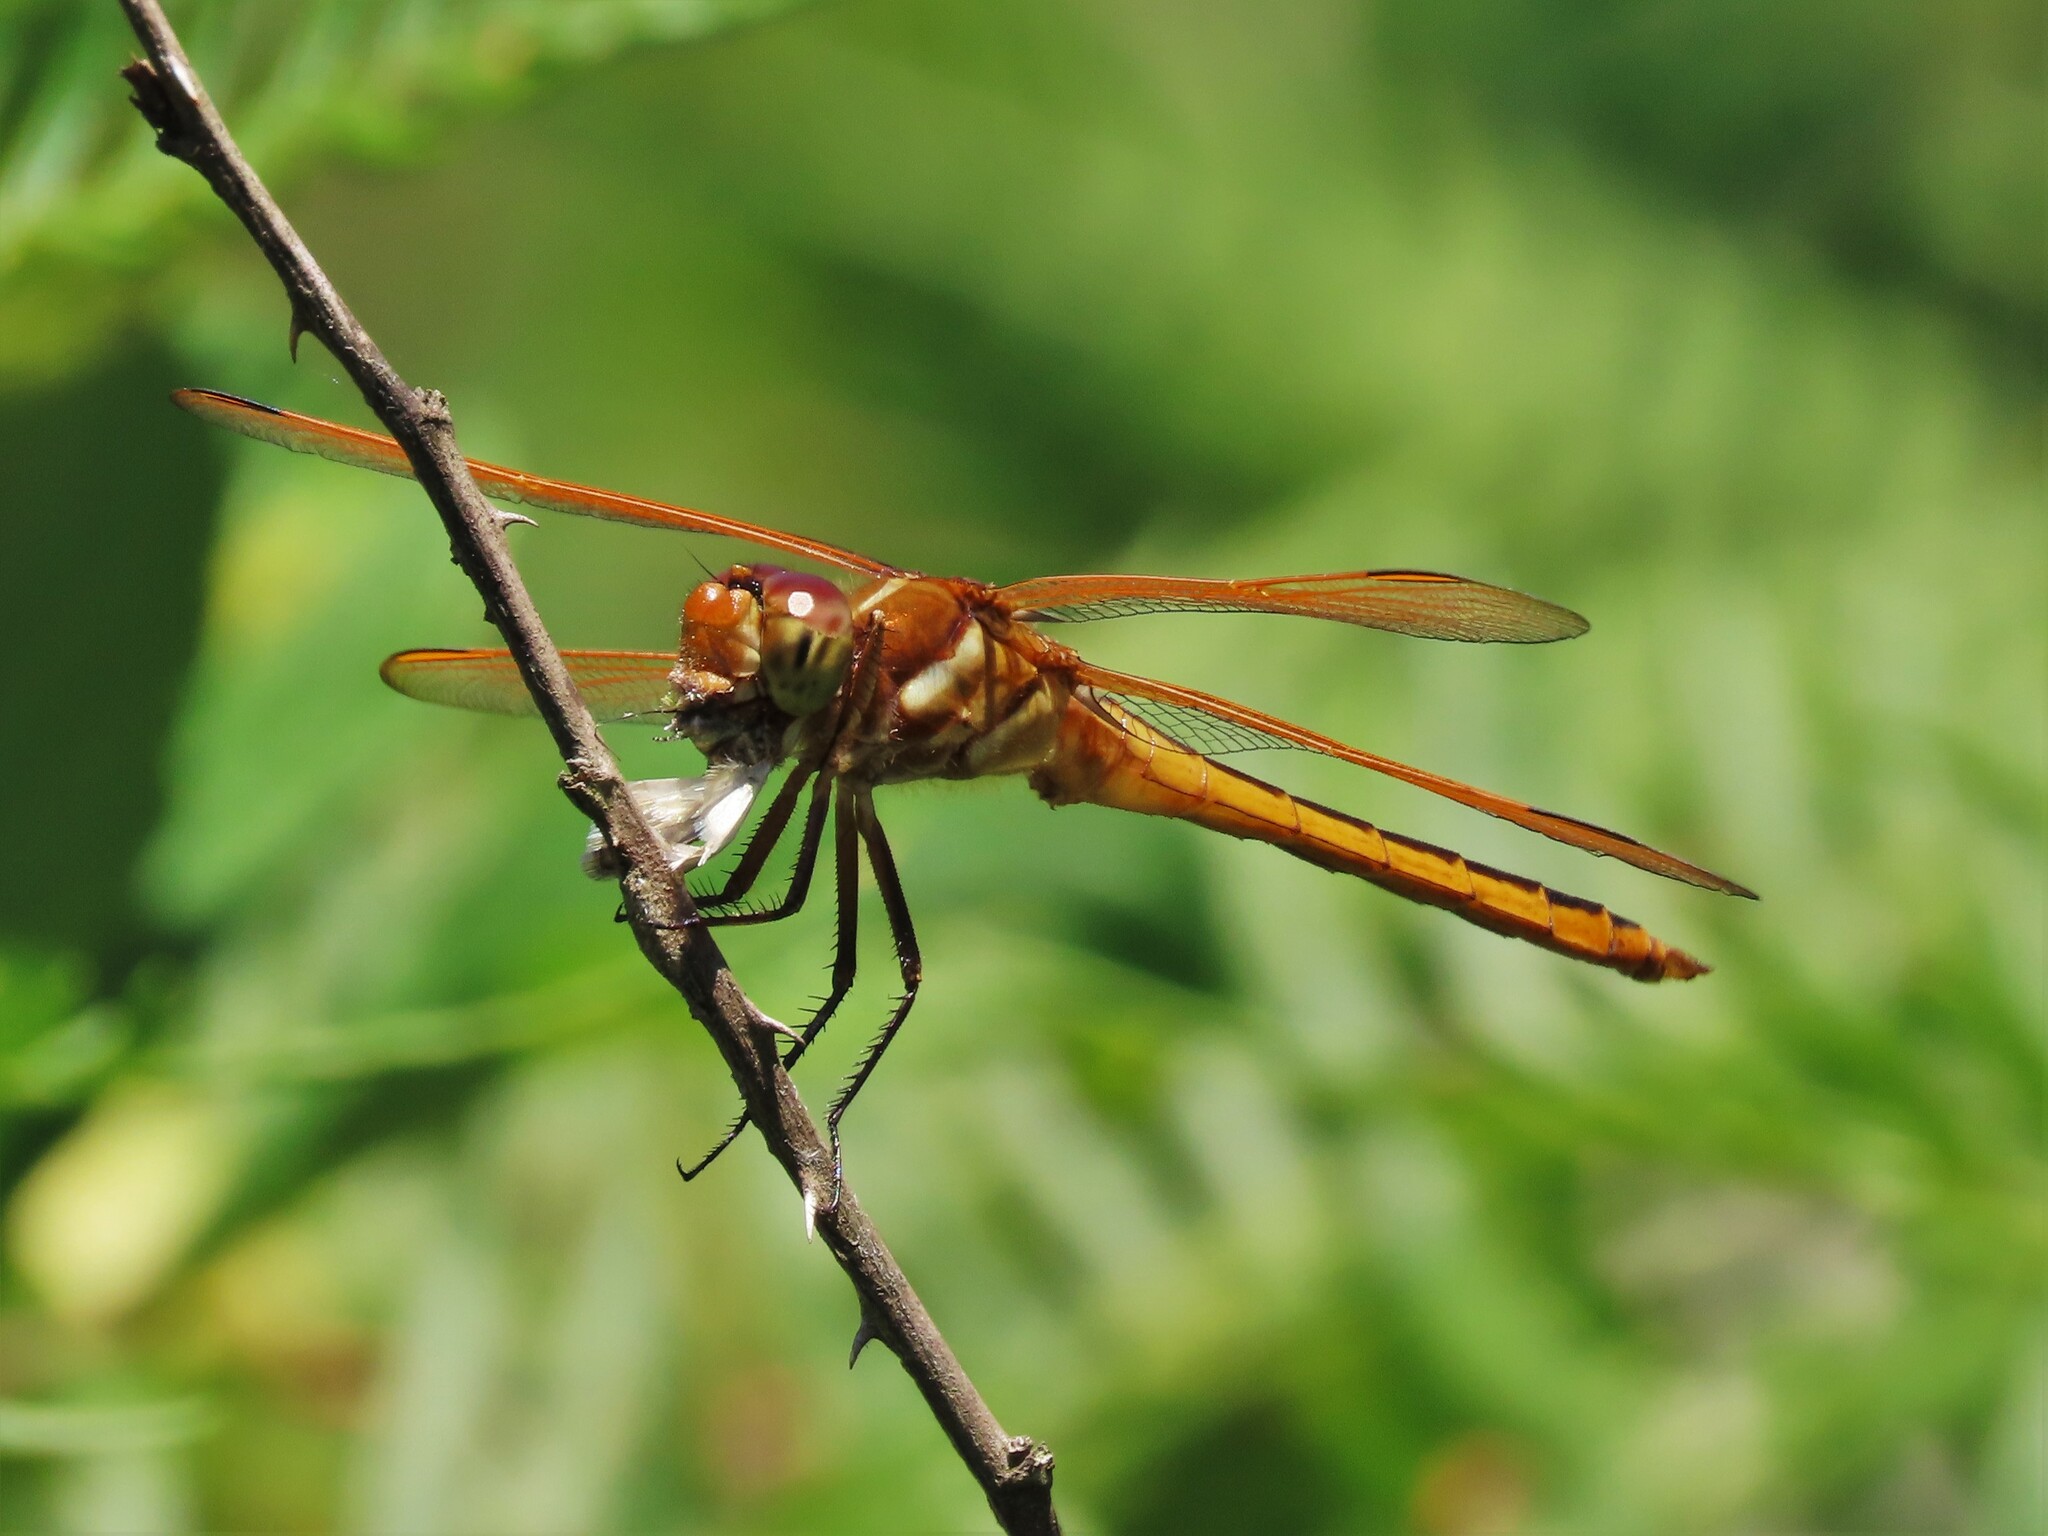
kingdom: Animalia
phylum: Arthropoda
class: Insecta
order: Odonata
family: Libellulidae
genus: Libellula
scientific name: Libellula auripennis
